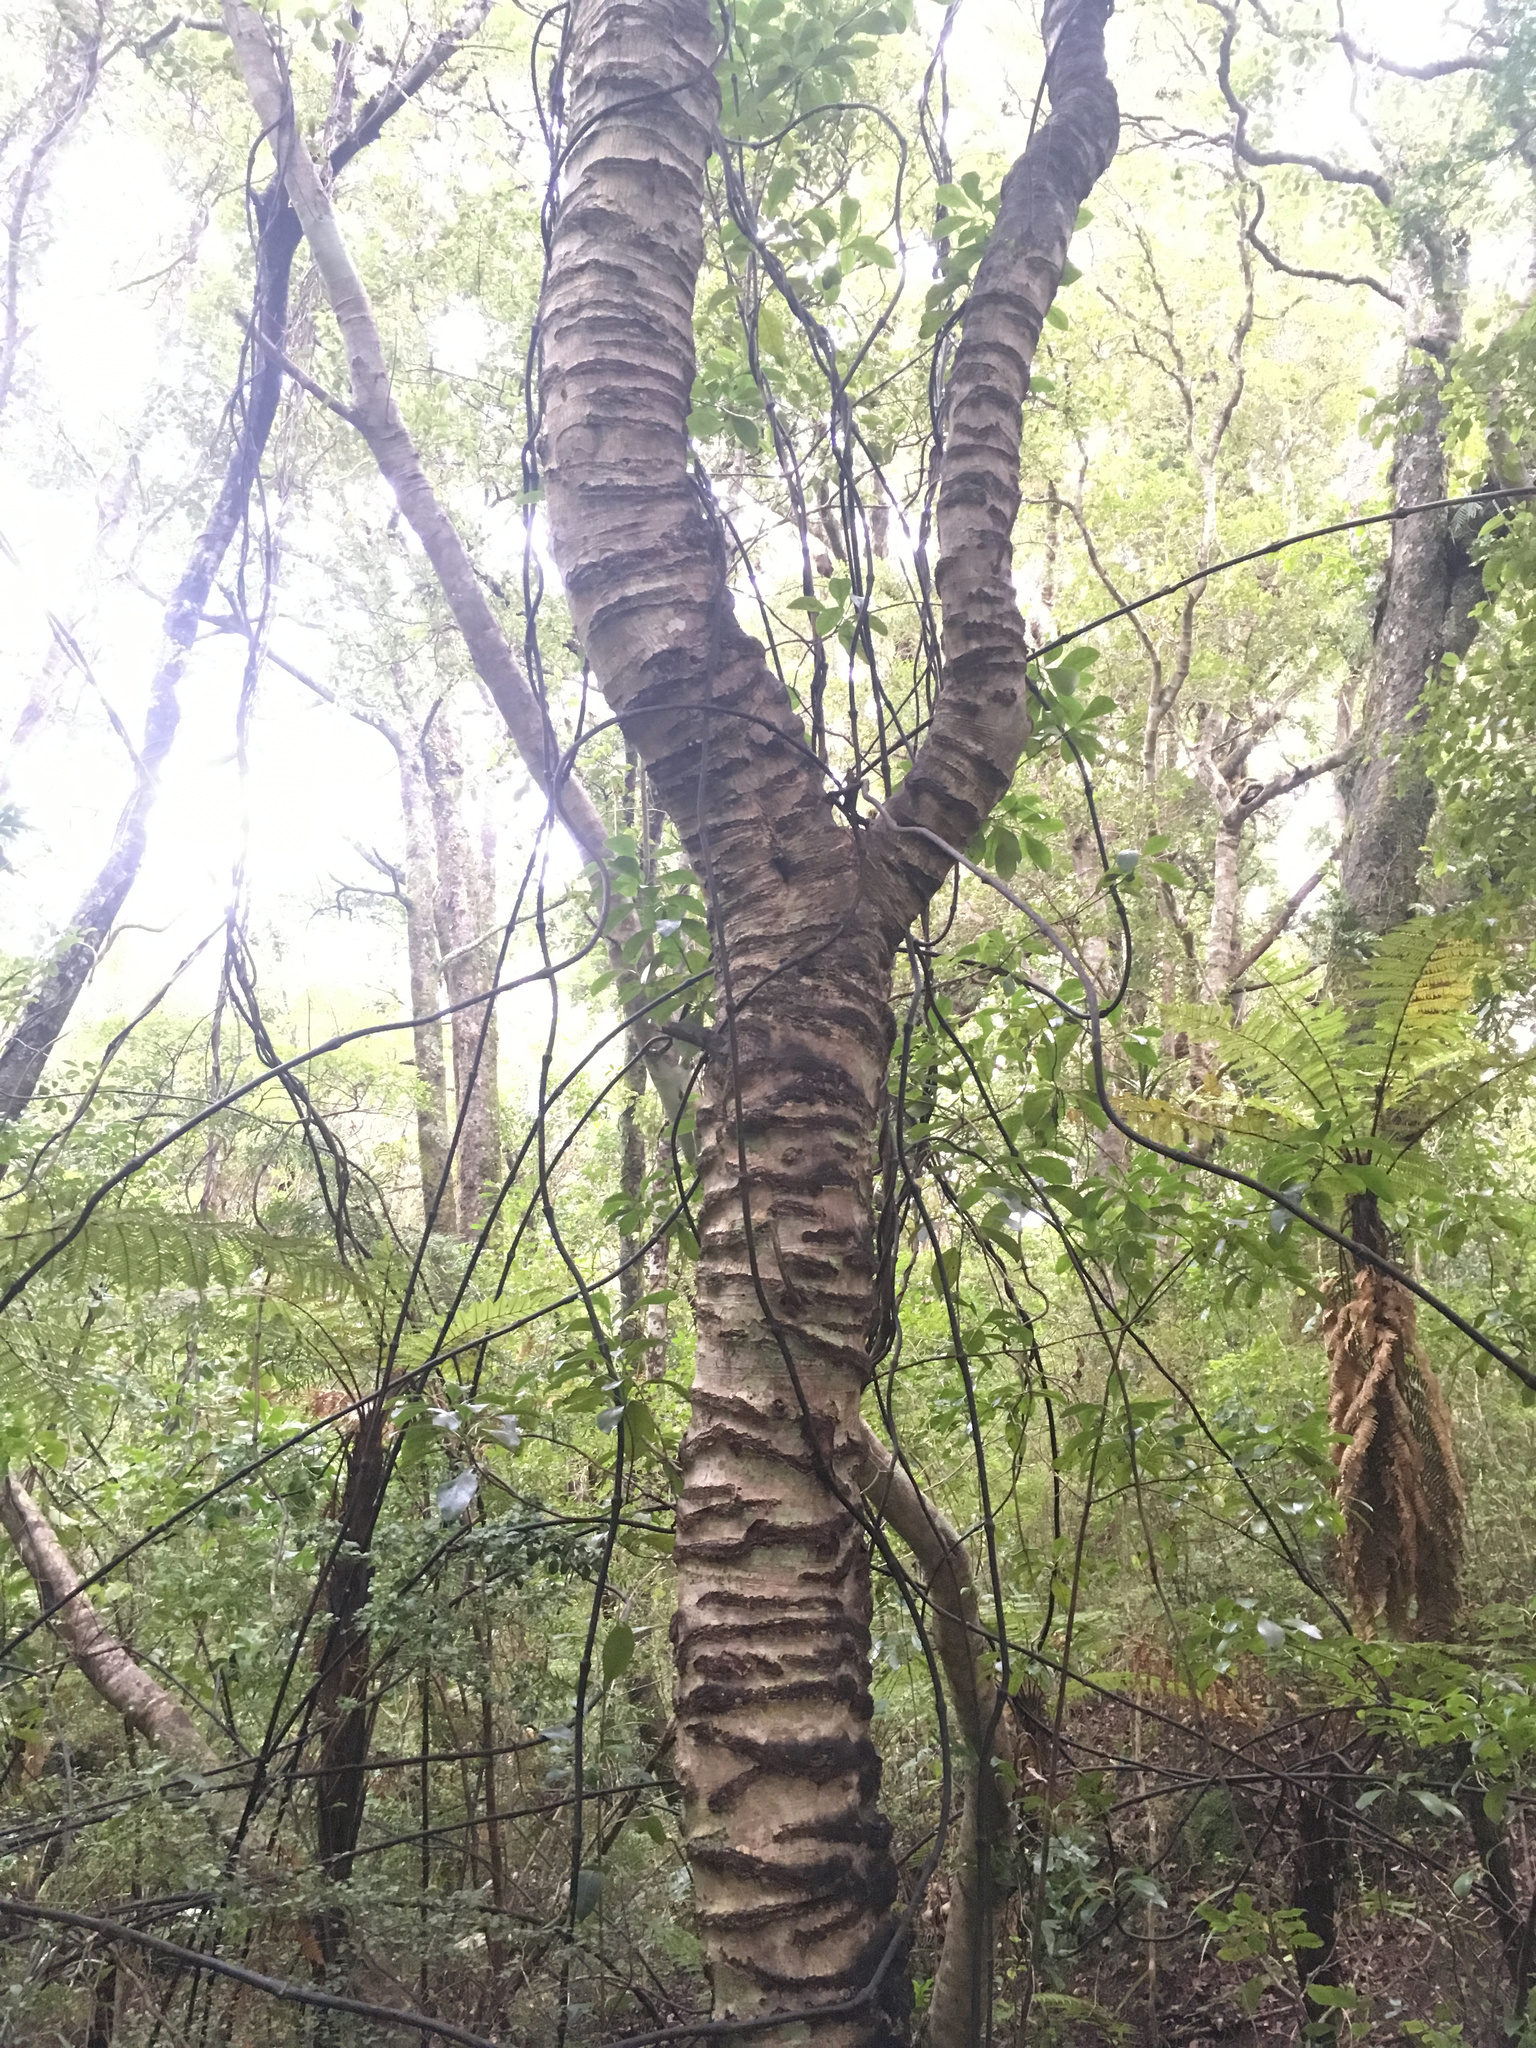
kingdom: Plantae
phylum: Tracheophyta
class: Magnoliopsida
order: Oxalidales
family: Cunoniaceae
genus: Pterophylla
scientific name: Pterophylla racemosa
